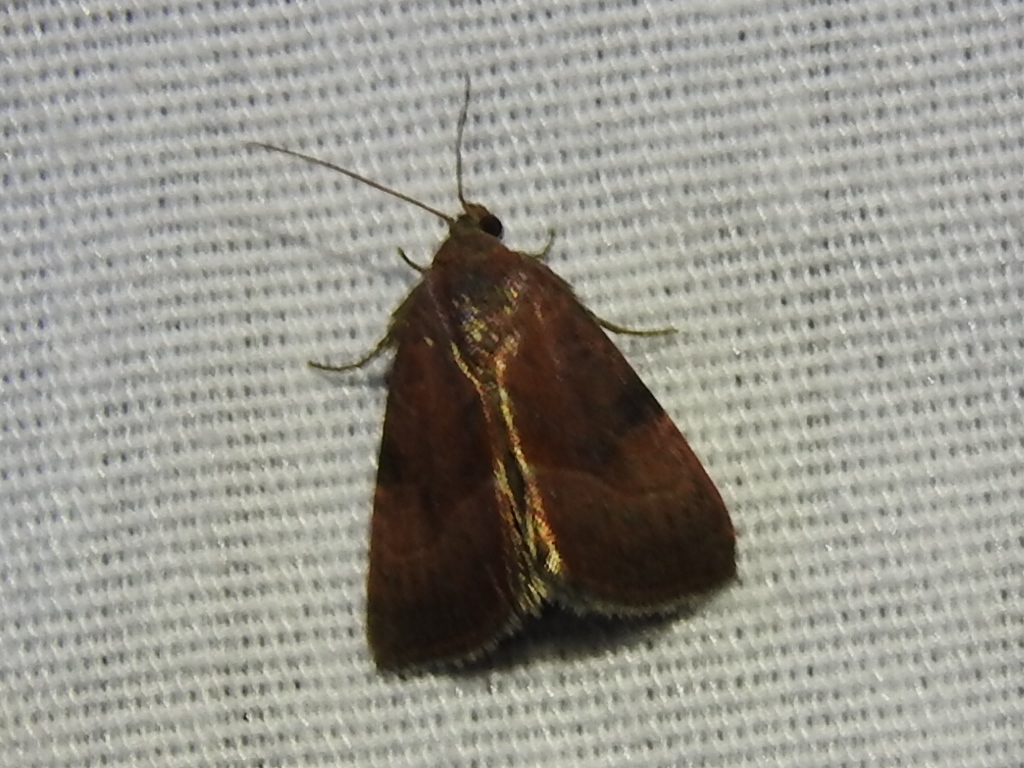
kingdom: Animalia
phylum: Arthropoda
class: Insecta
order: Lepidoptera
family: Noctuidae
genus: Galgula
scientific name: Galgula partita
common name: Wedgeling
